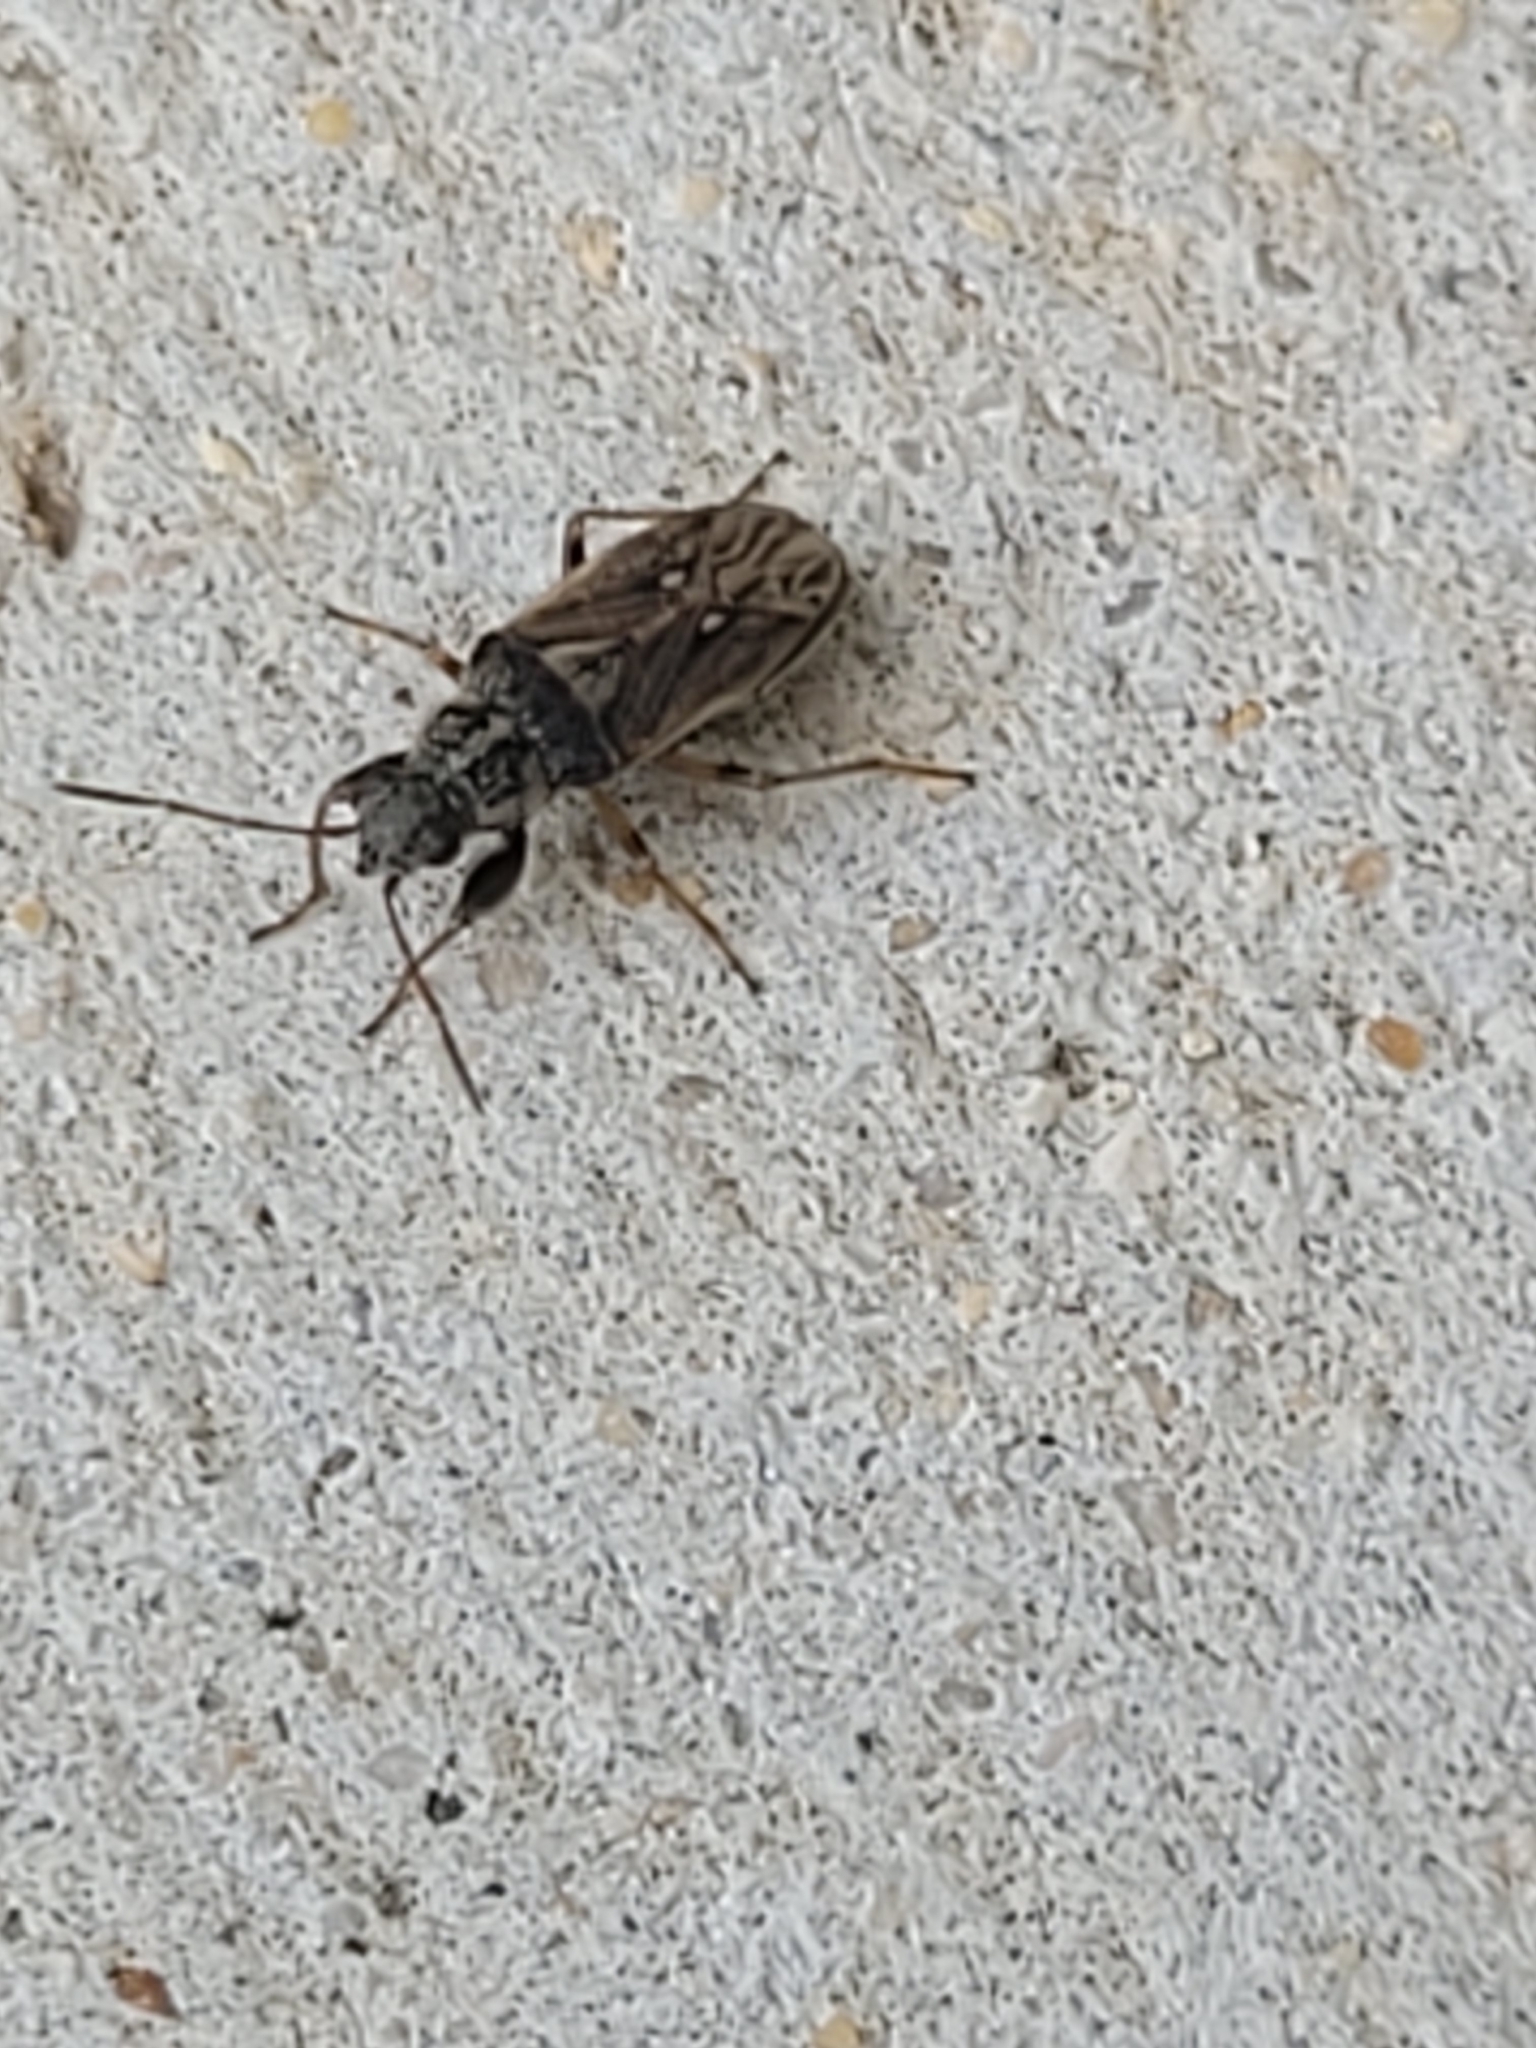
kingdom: Animalia
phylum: Arthropoda
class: Insecta
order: Hemiptera
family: Rhyparochromidae
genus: Pseudopachybrachius
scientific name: Pseudopachybrachius basalis
